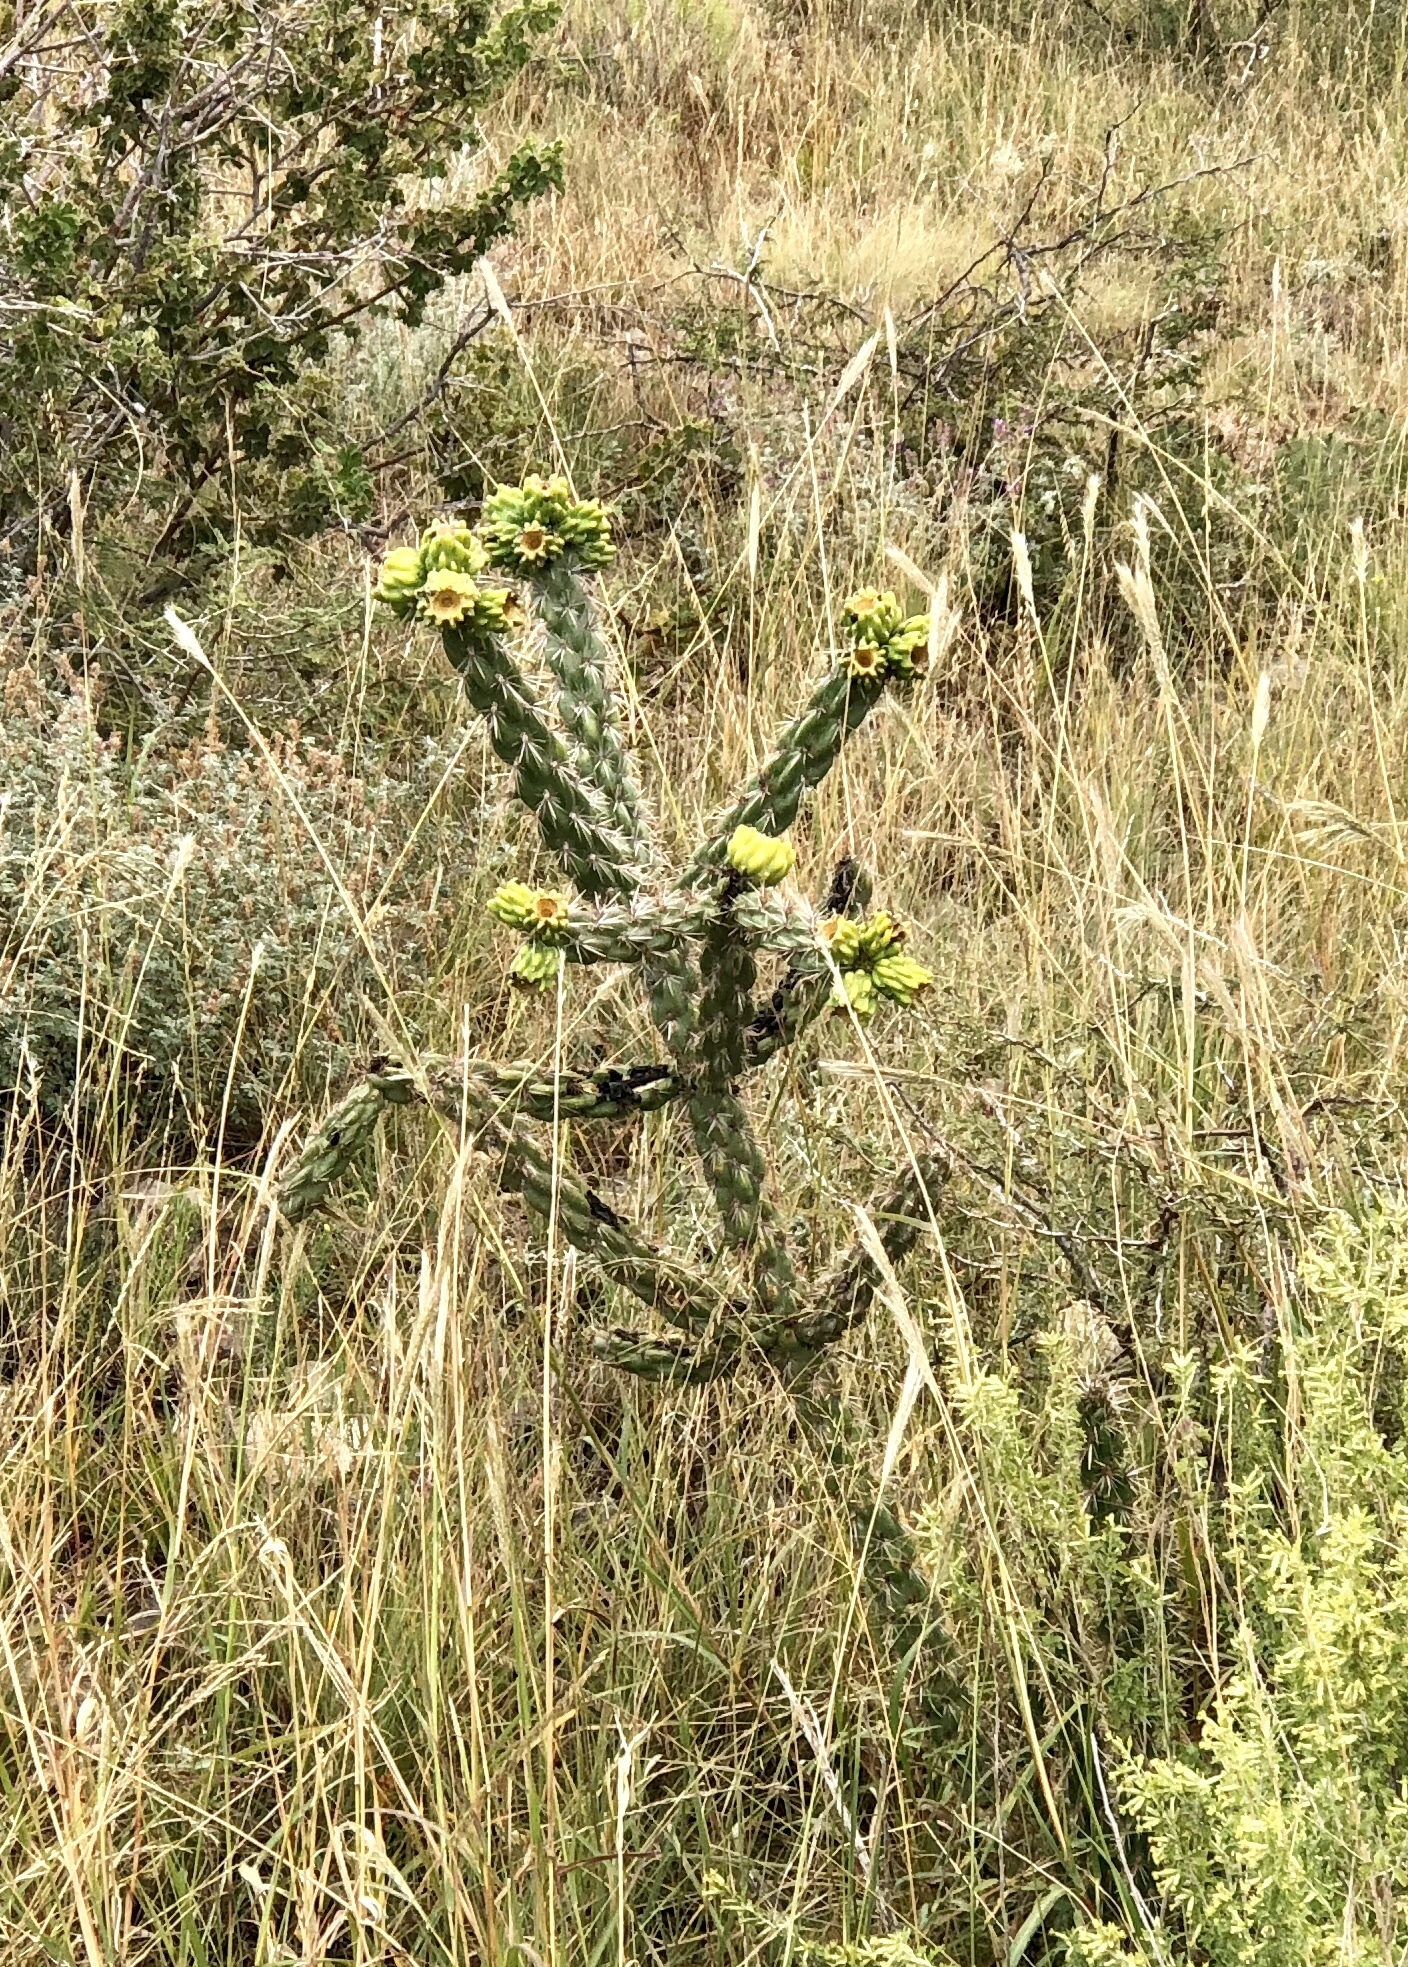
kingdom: Plantae
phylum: Tracheophyta
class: Magnoliopsida
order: Caryophyllales
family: Cactaceae
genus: Cylindropuntia
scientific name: Cylindropuntia imbricata
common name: Candelabrum cactus
